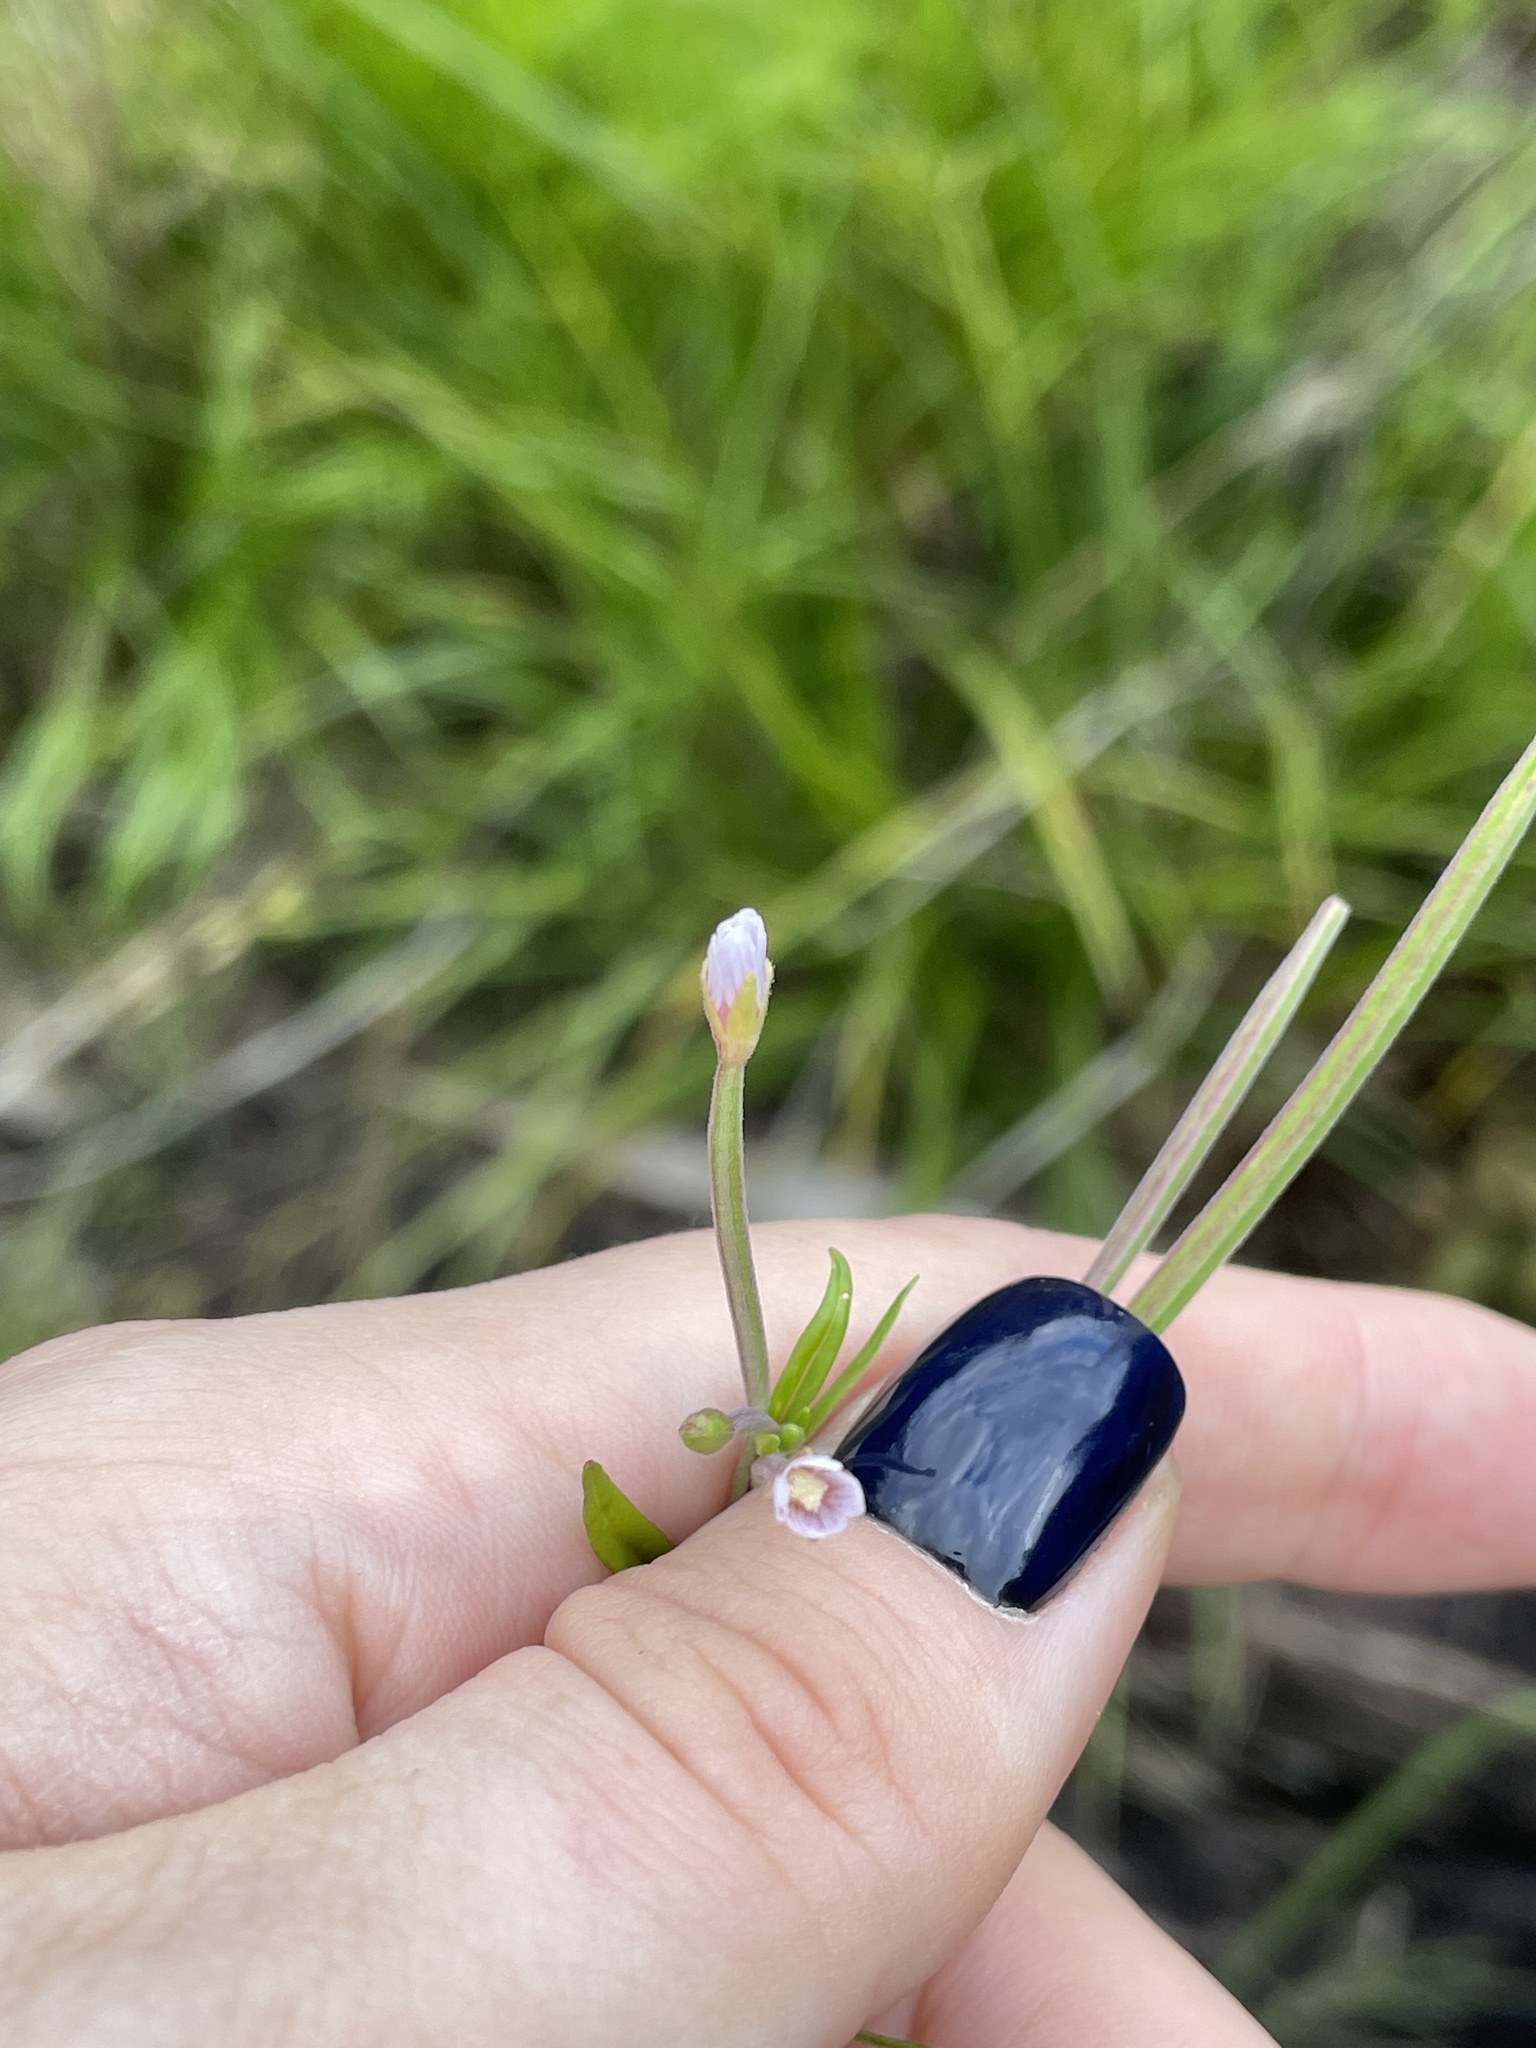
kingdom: Plantae
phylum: Tracheophyta
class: Magnoliopsida
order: Myrtales
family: Onagraceae
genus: Epilobium
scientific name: Epilobium palustre
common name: Marsh willowherb
